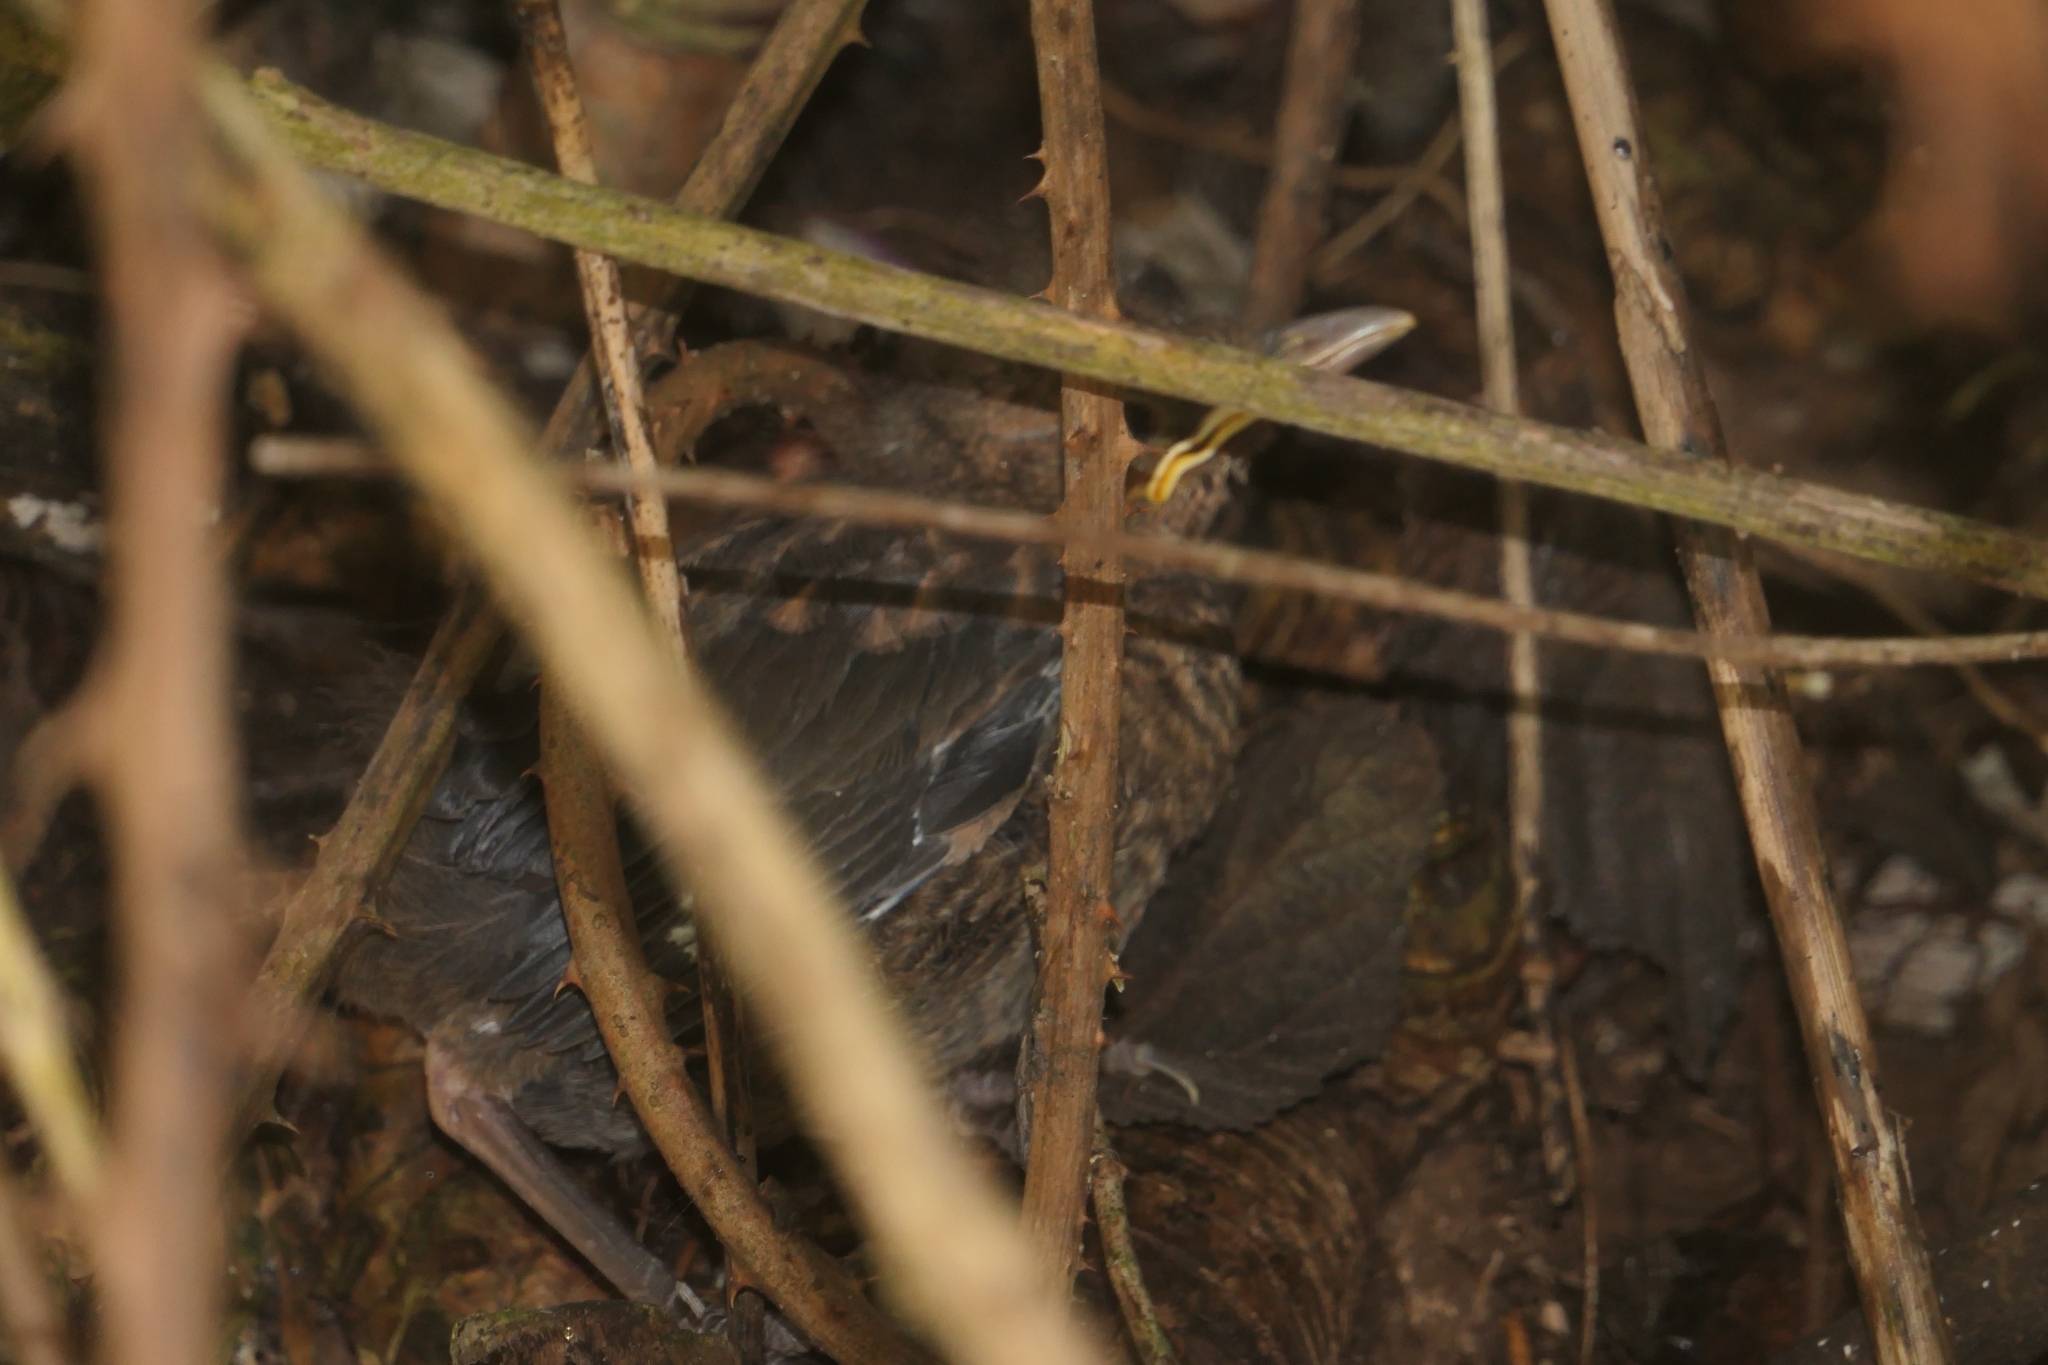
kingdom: Animalia
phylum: Chordata
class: Aves
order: Passeriformes
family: Turdidae
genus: Turdus
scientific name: Turdus merula
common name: Common blackbird
